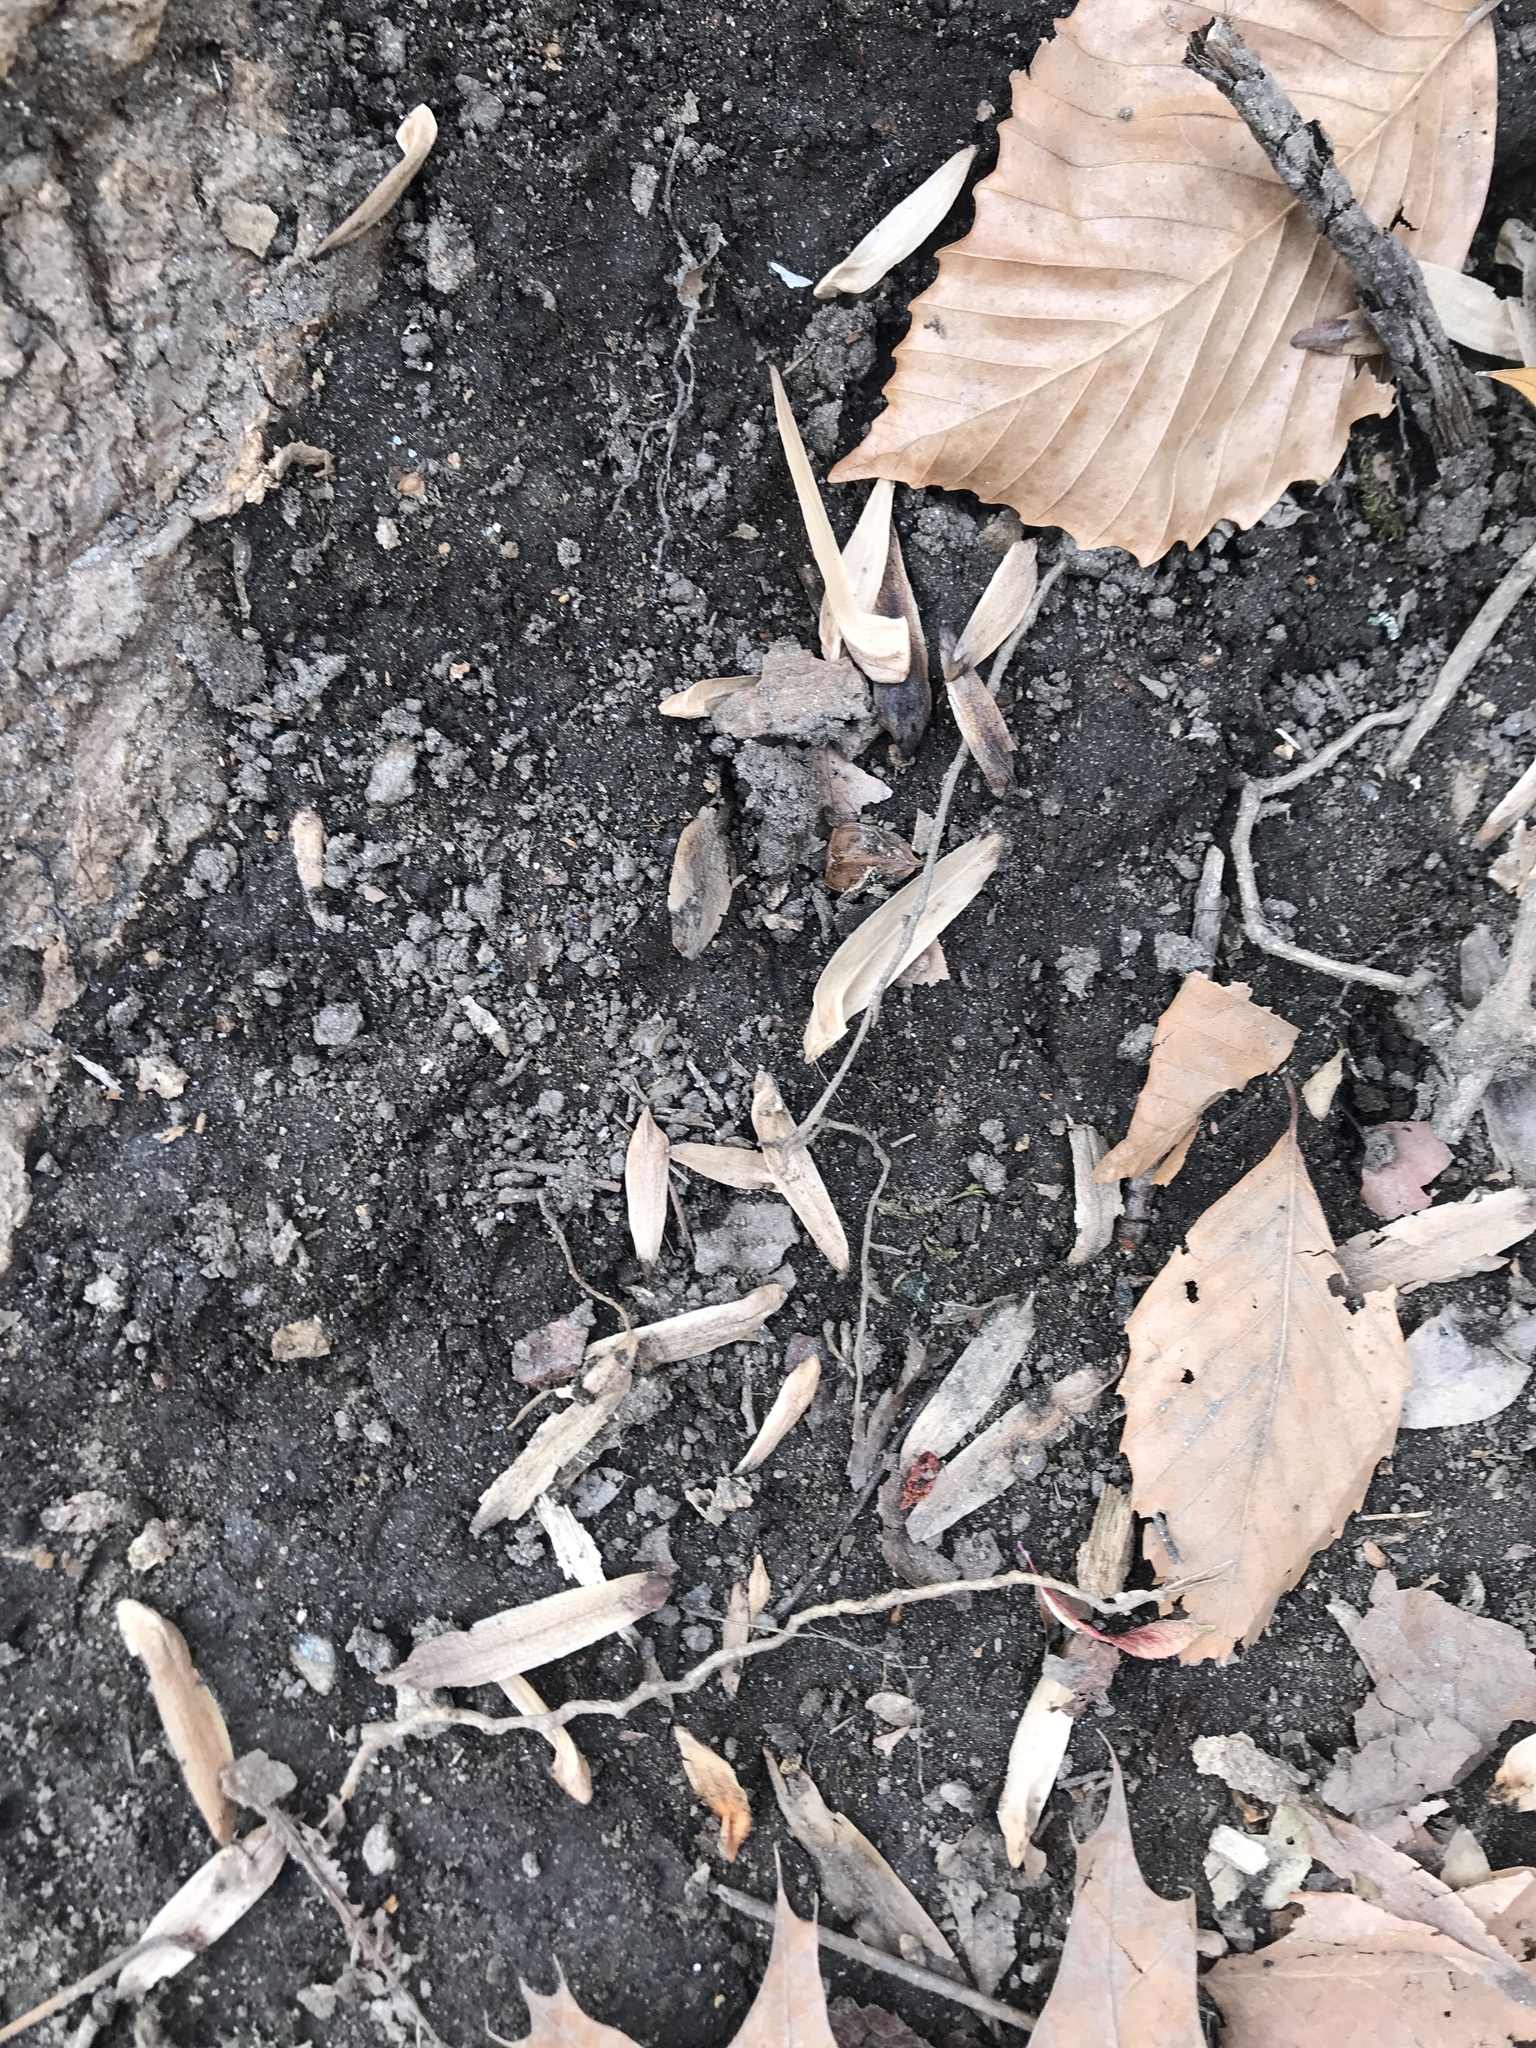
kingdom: Plantae
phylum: Tracheophyta
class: Magnoliopsida
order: Magnoliales
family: Magnoliaceae
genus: Liriodendron
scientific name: Liriodendron tulipifera
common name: Tulip tree
